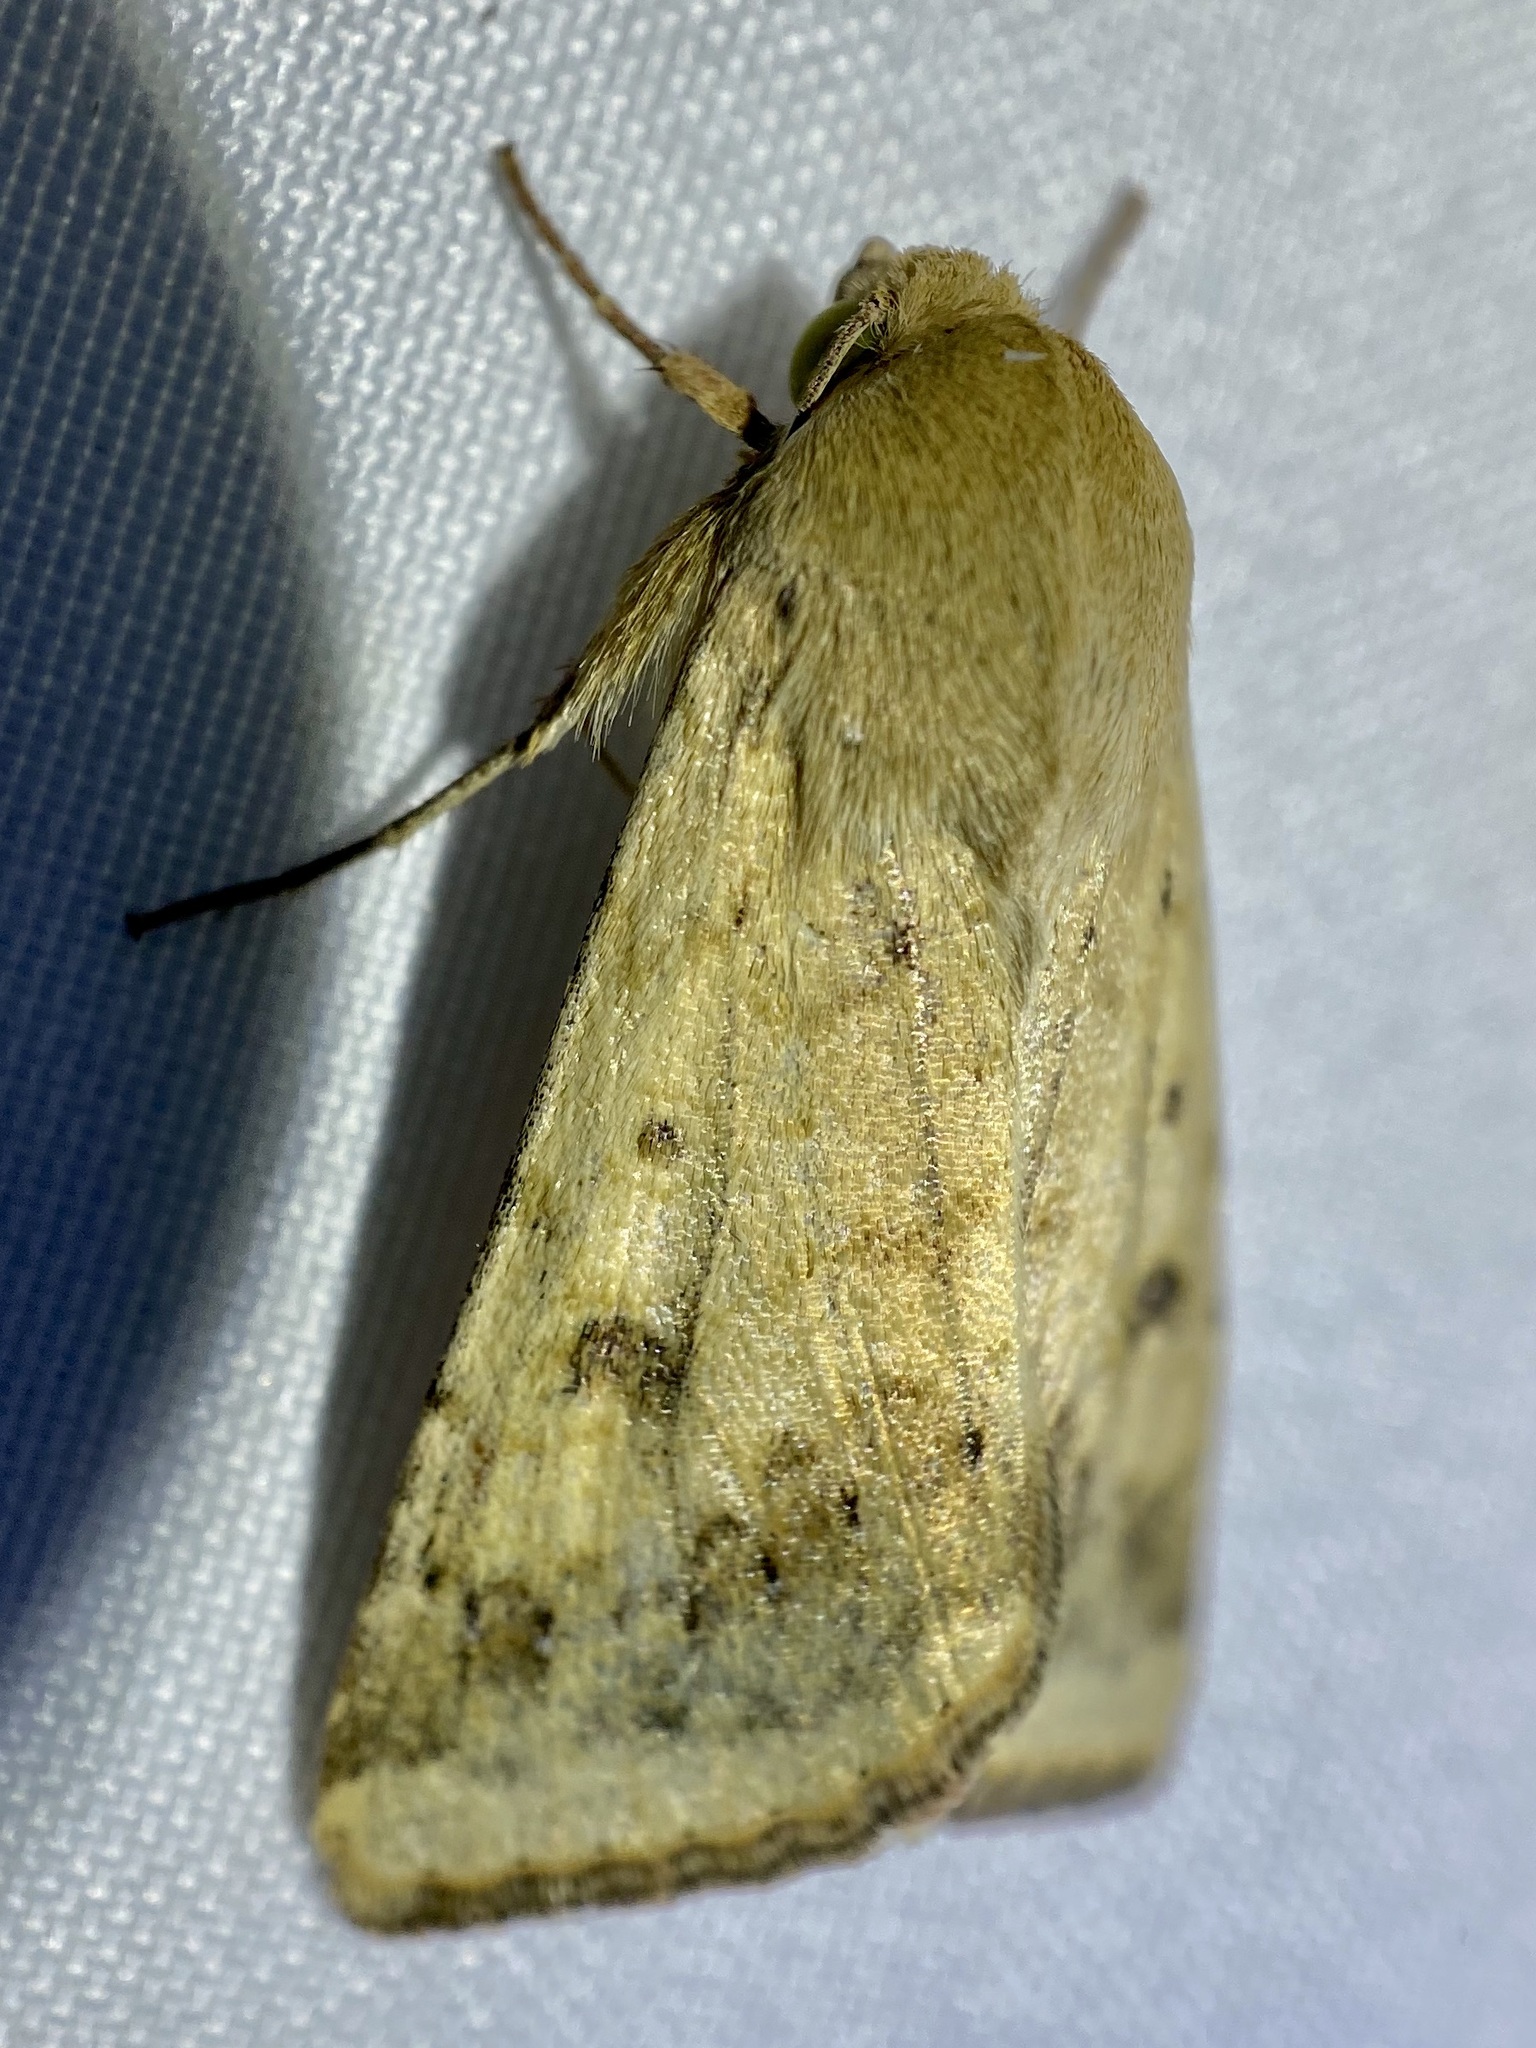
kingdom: Animalia
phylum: Arthropoda
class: Insecta
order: Lepidoptera
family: Noctuidae
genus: Helicoverpa
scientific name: Helicoverpa zea
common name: Bollworm
